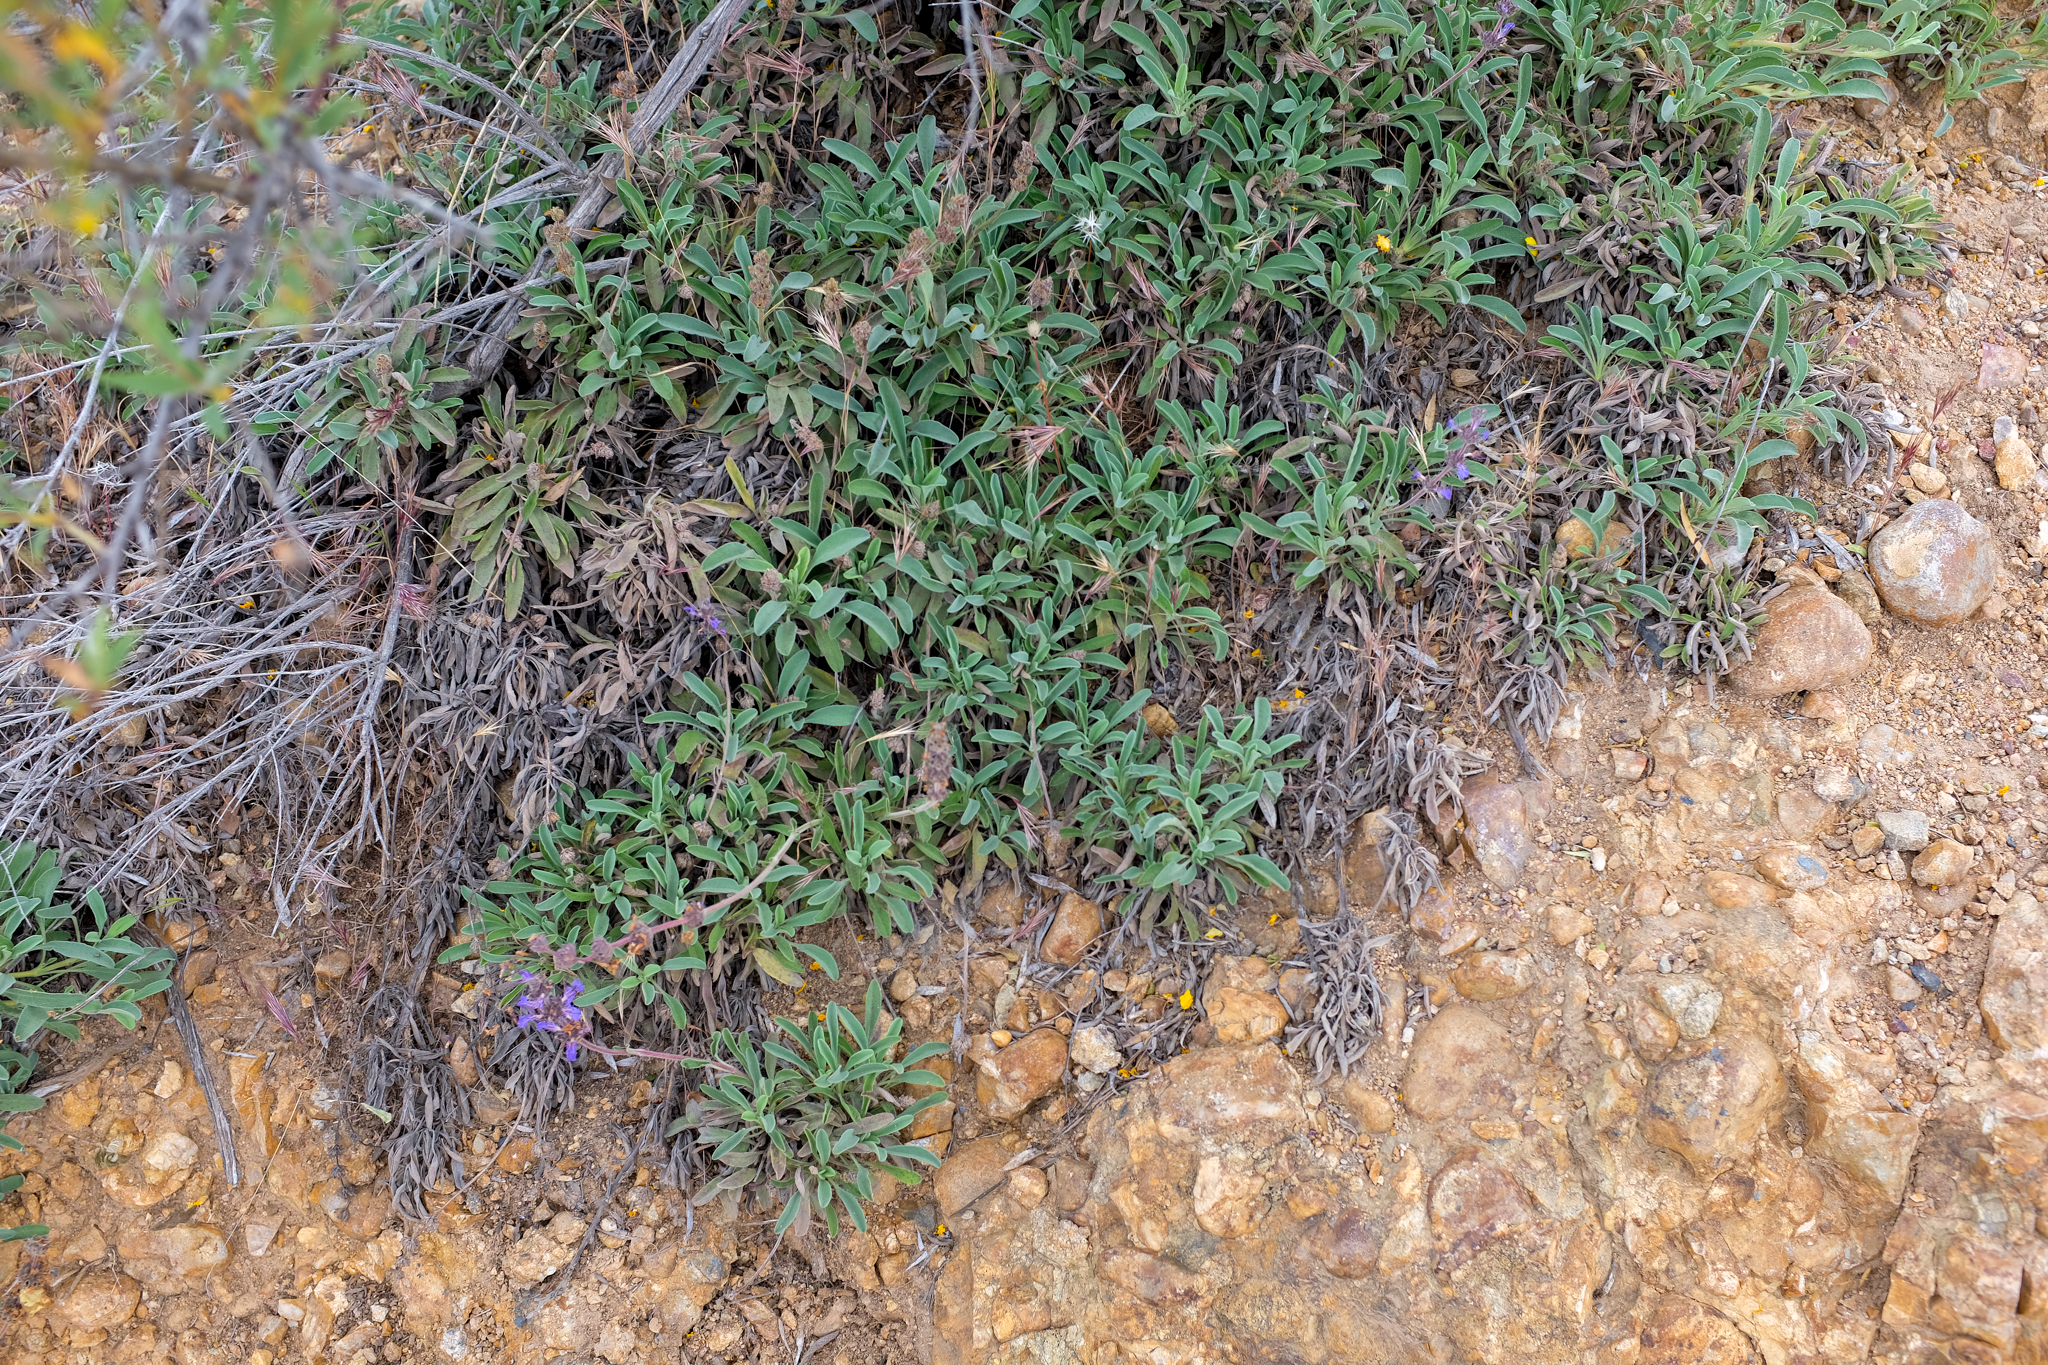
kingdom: Plantae
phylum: Tracheophyta
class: Magnoliopsida
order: Lamiales
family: Lamiaceae
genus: Salvia
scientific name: Salvia sonomensis
